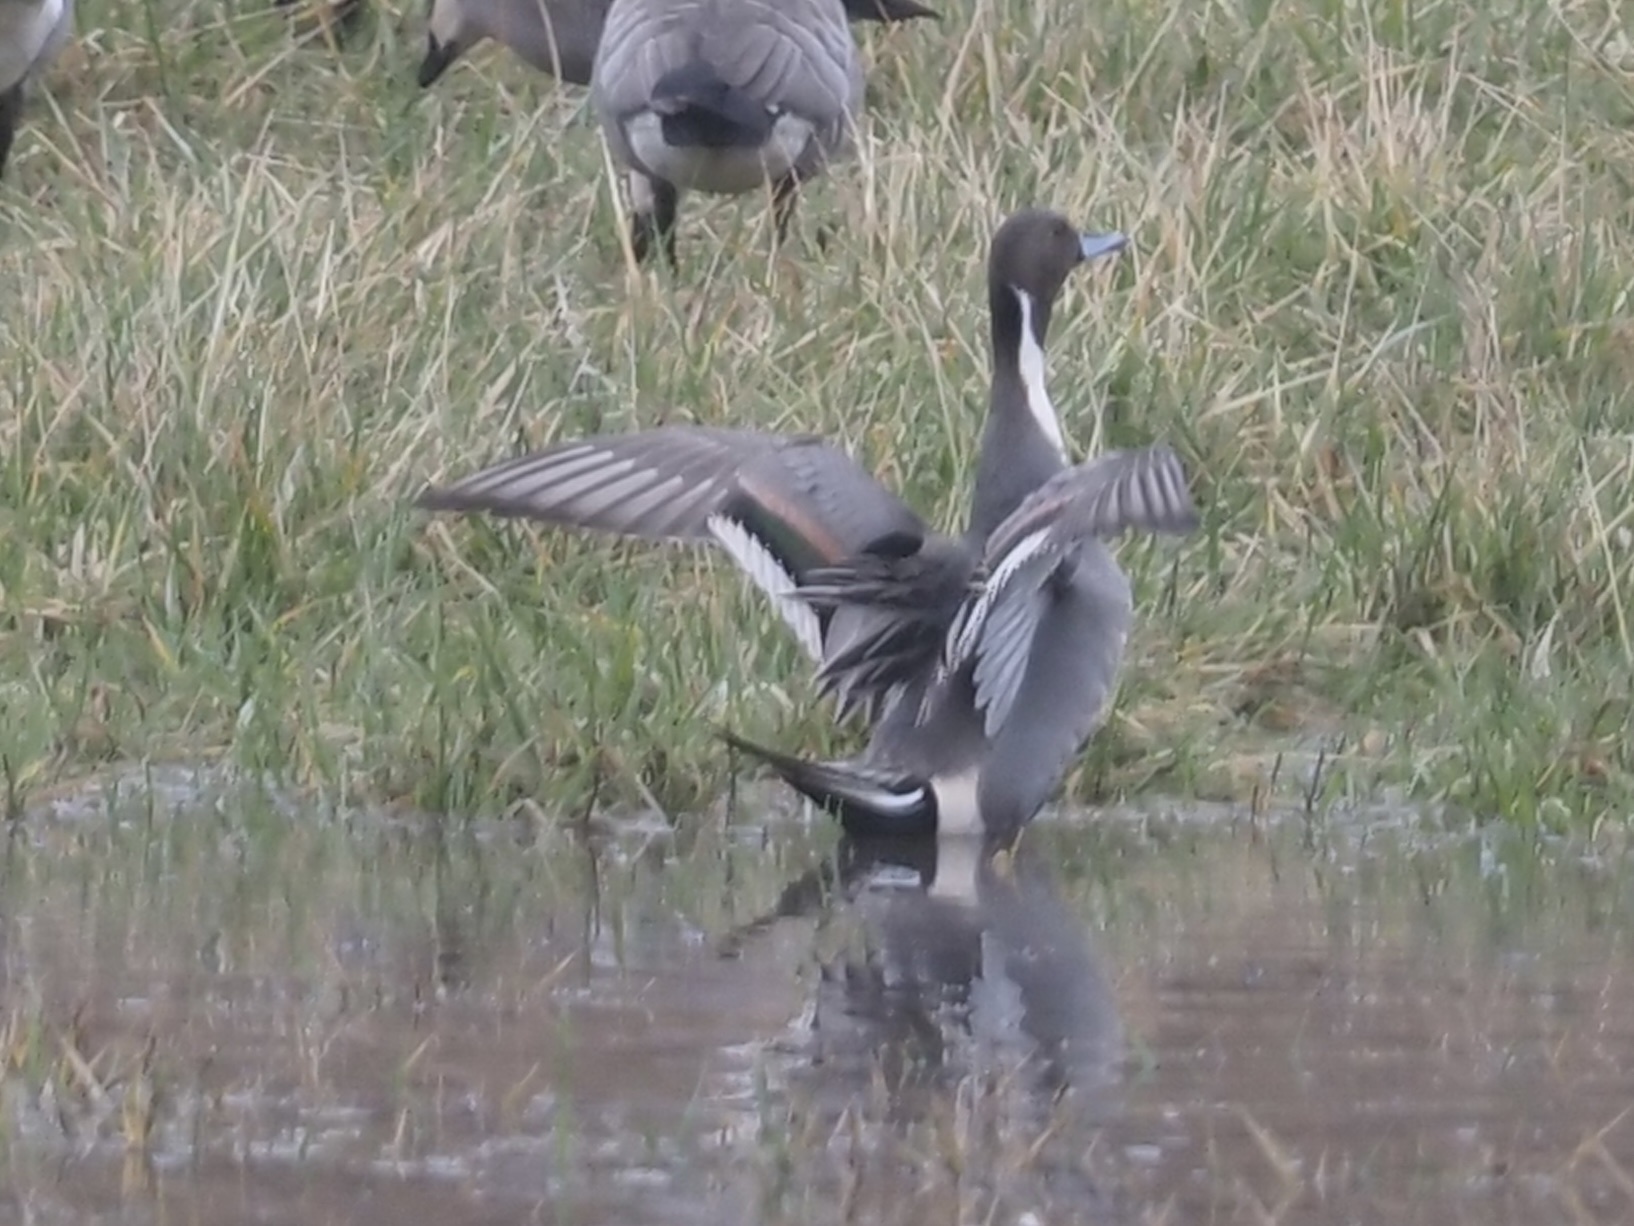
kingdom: Animalia
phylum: Chordata
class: Aves
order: Anseriformes
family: Anatidae
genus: Anas
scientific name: Anas acuta
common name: Northern pintail
